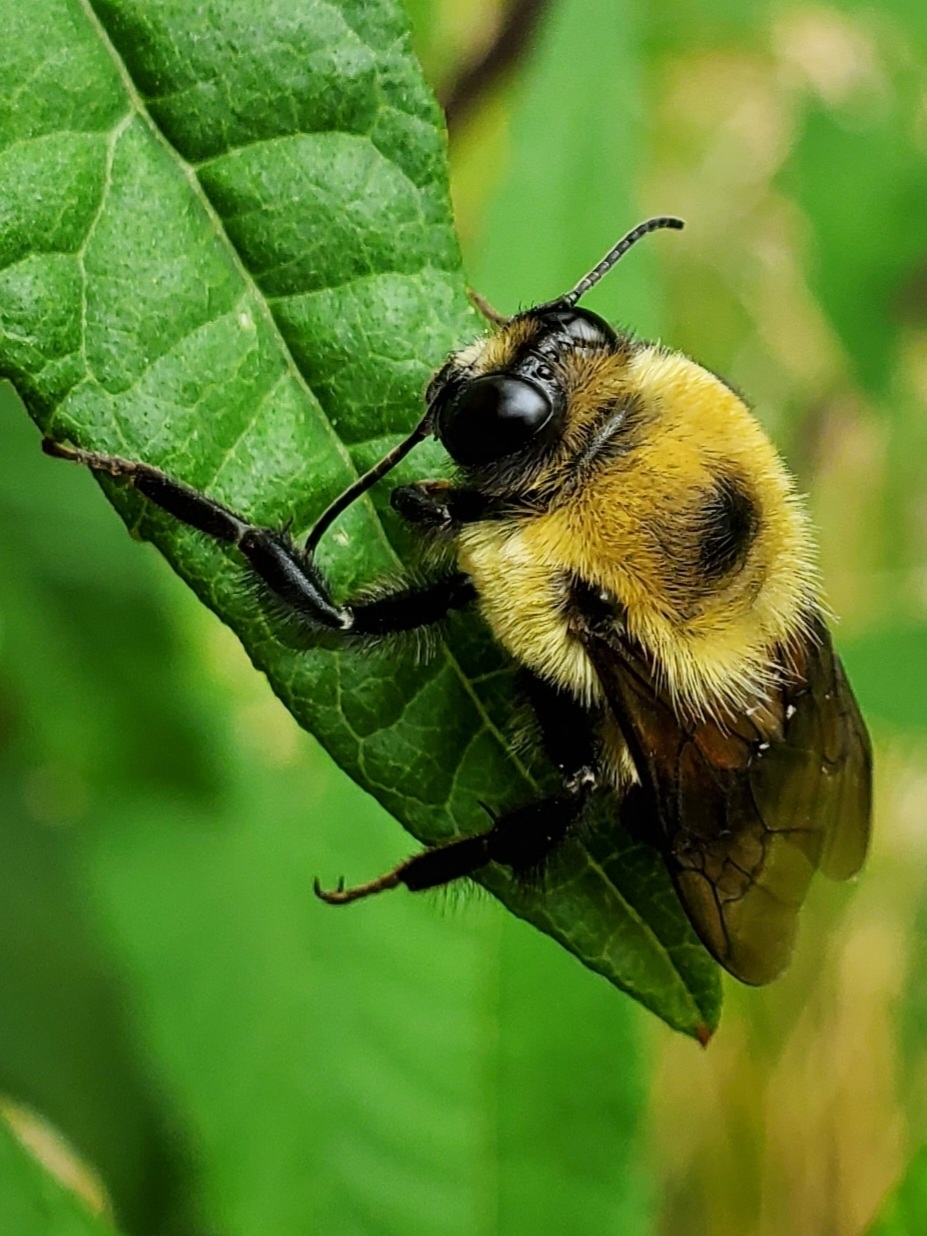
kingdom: Animalia
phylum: Arthropoda
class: Insecta
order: Hymenoptera
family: Apidae
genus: Bombus
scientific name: Bombus griseocollis
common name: Brown-belted bumble bee
